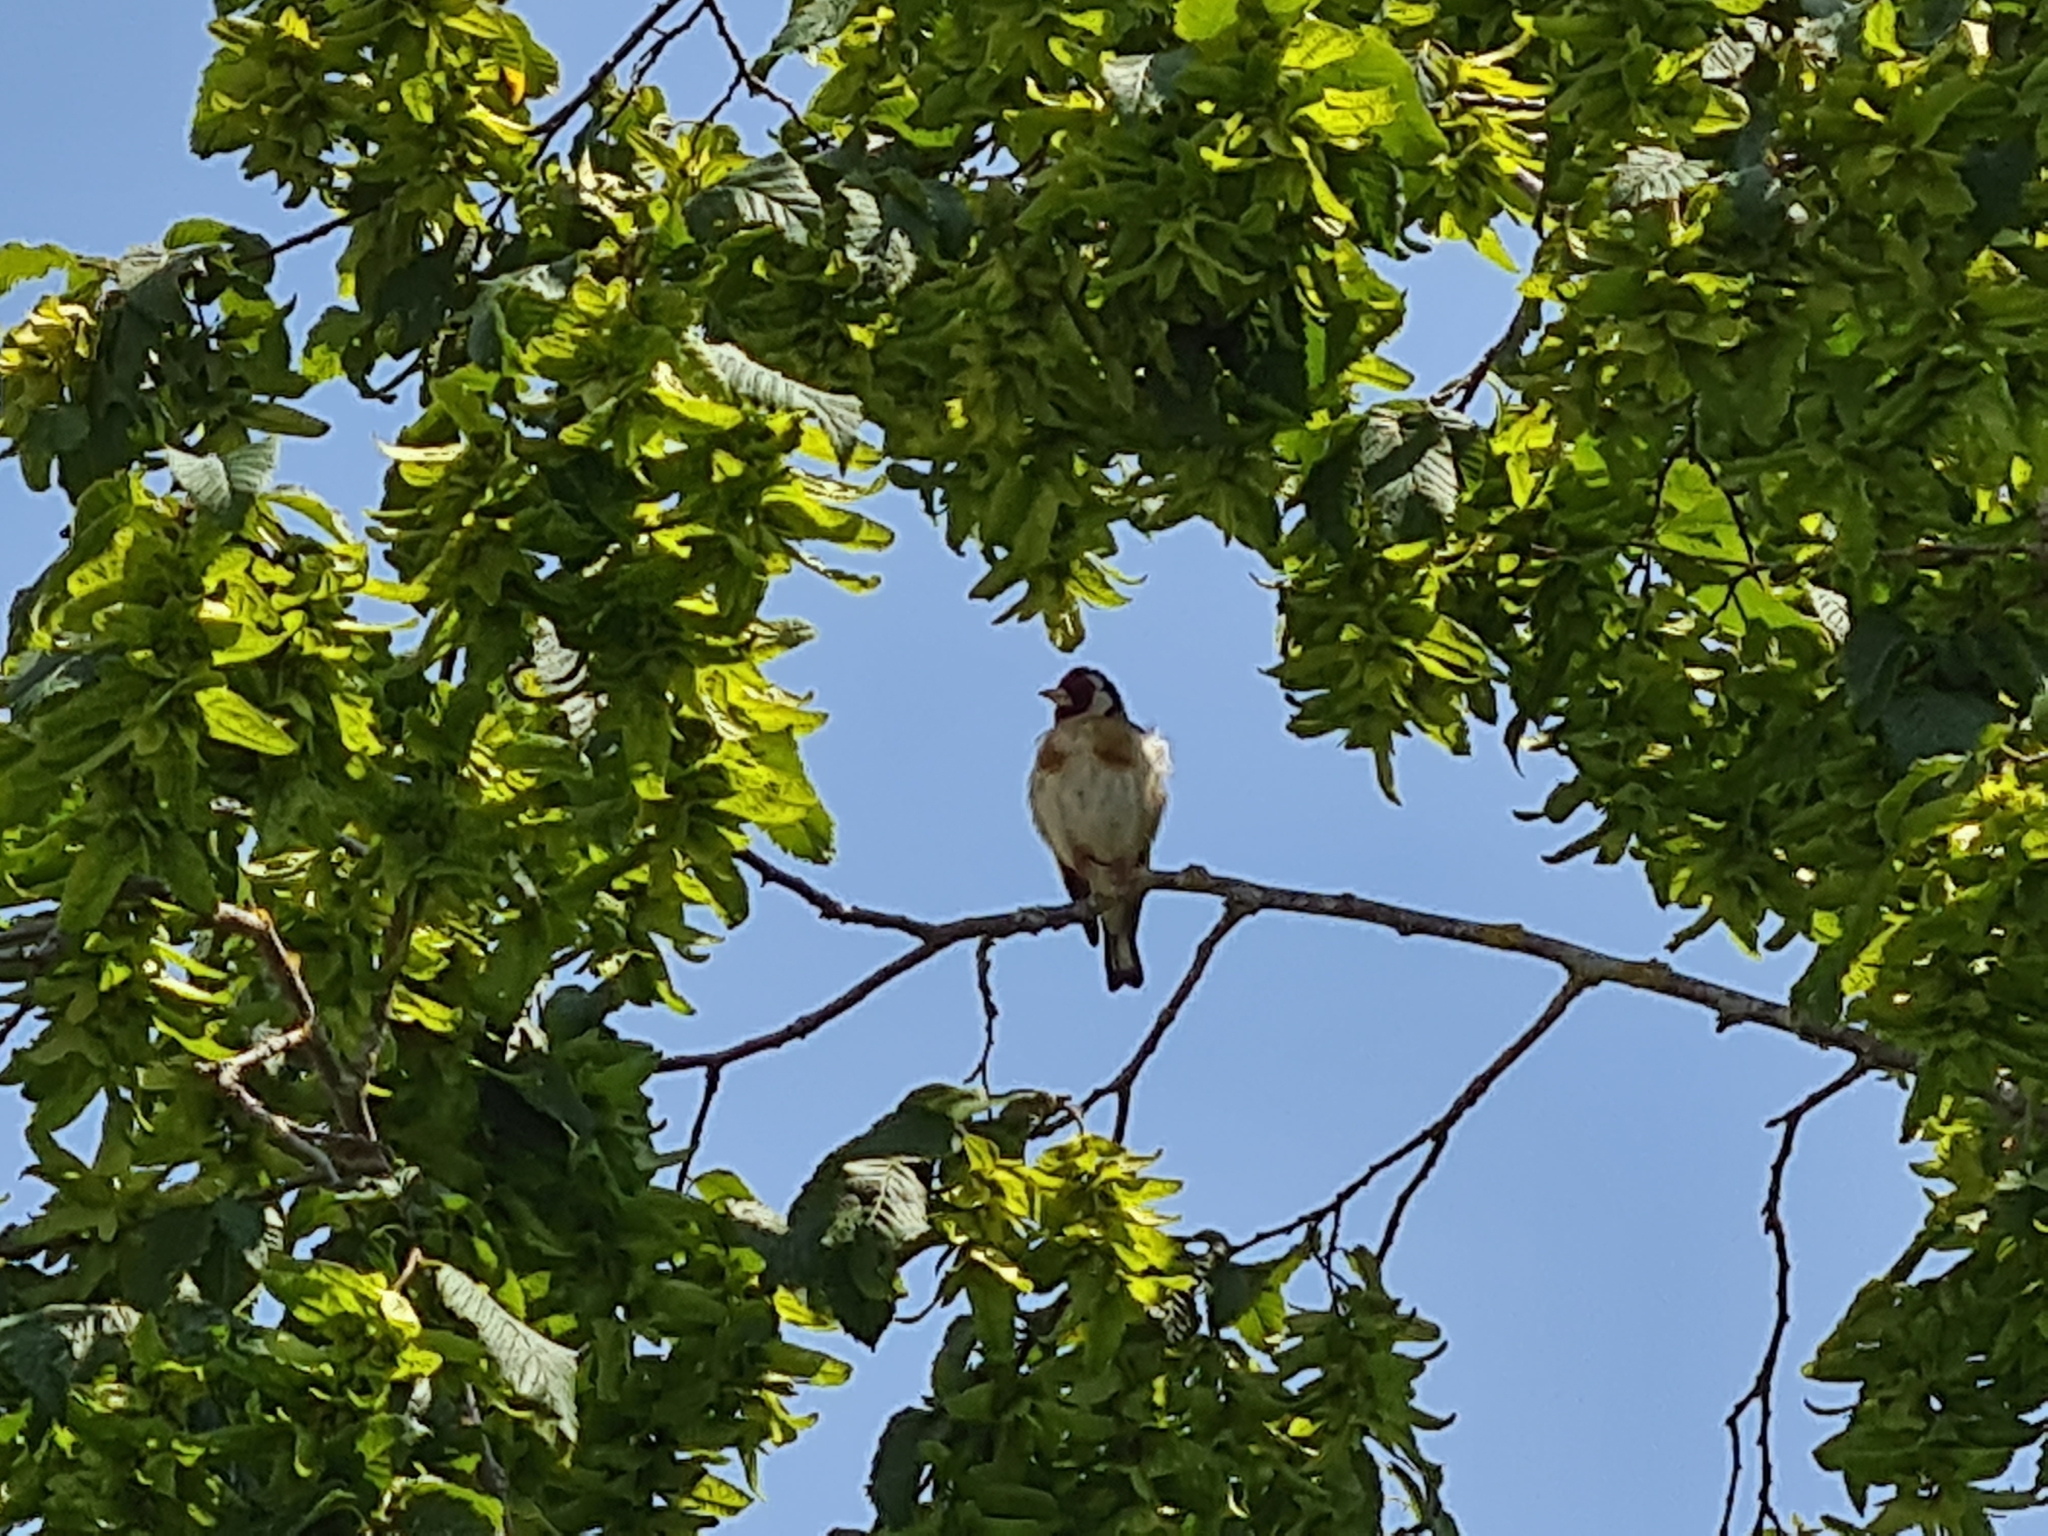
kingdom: Animalia
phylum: Chordata
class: Aves
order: Passeriformes
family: Fringillidae
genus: Carduelis
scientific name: Carduelis carduelis
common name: European goldfinch
